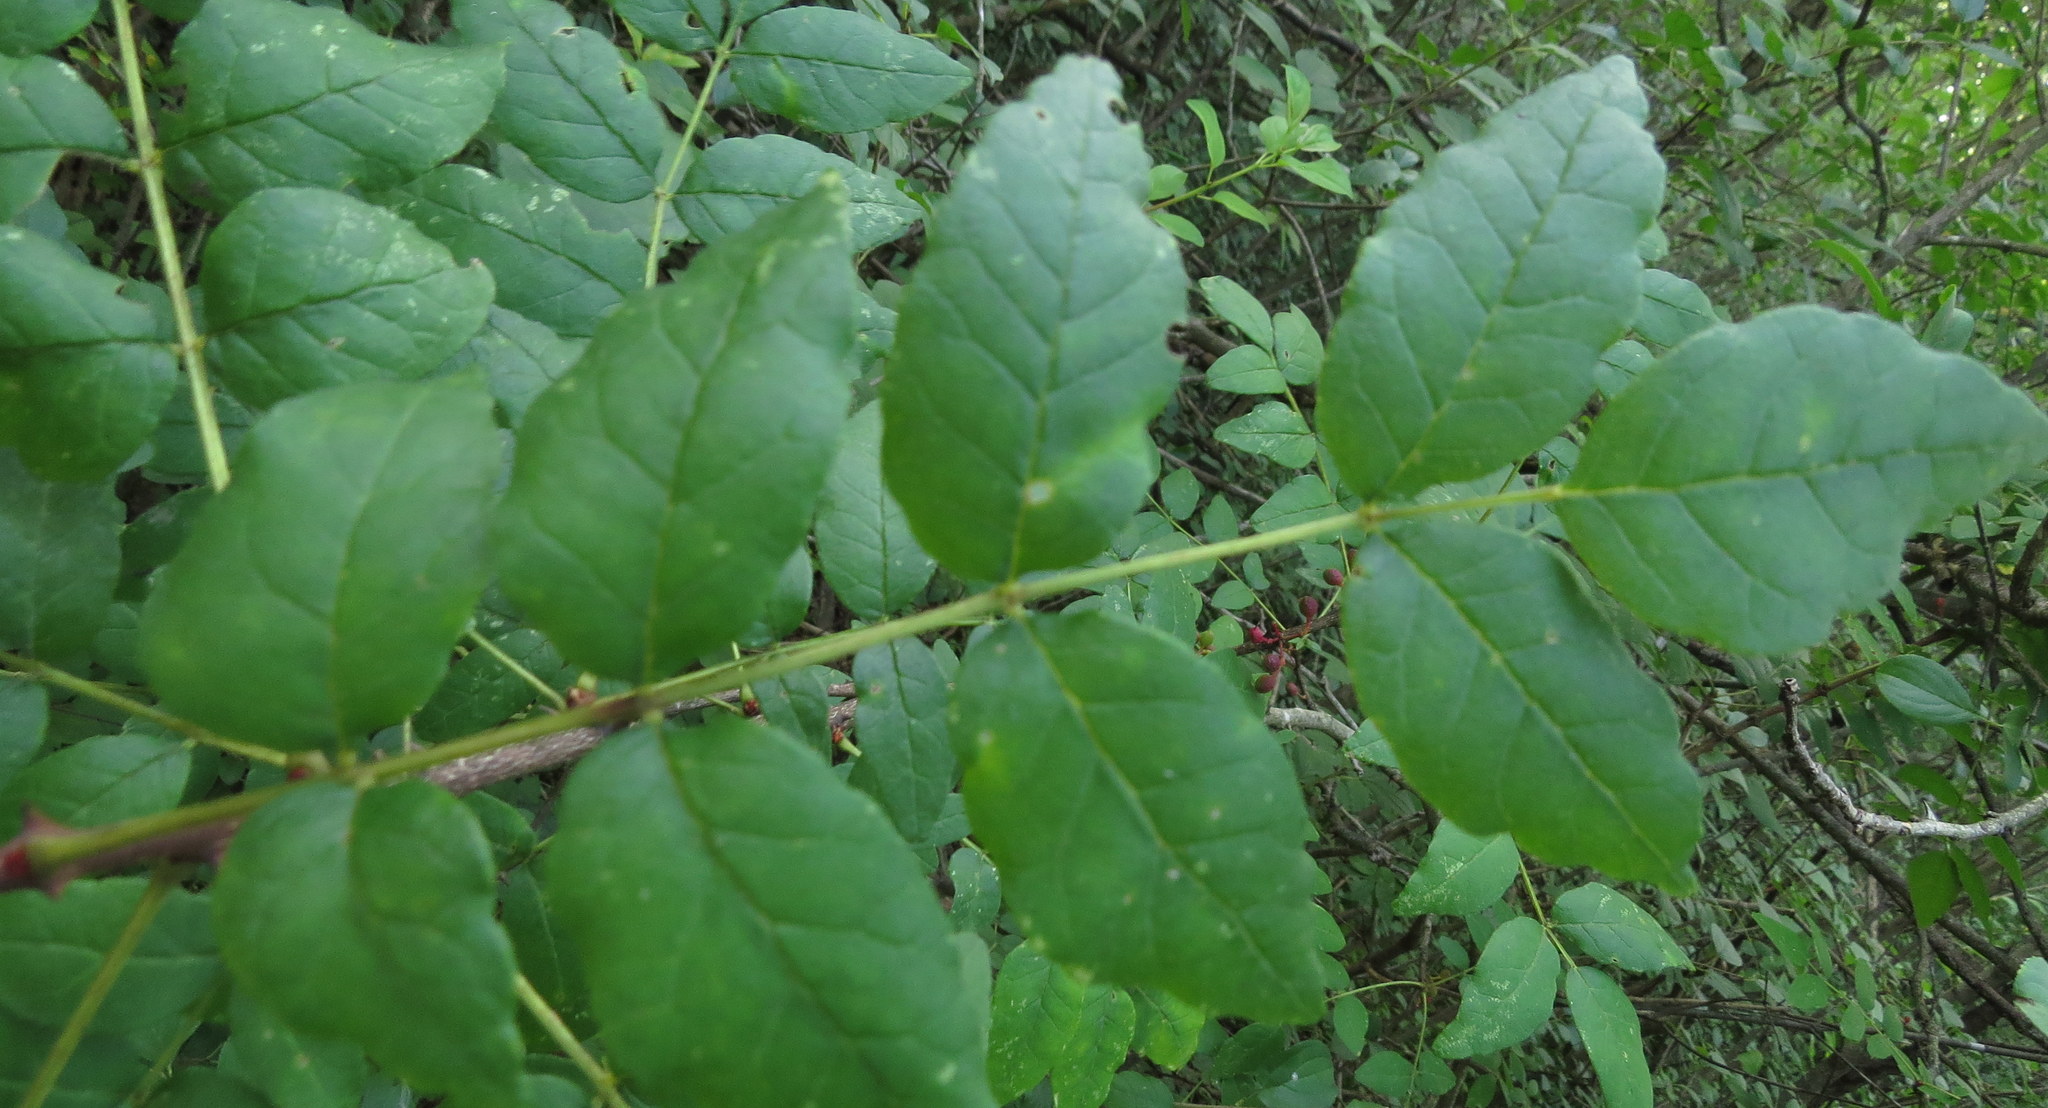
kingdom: Plantae
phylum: Tracheophyta
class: Magnoliopsida
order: Sapindales
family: Rutaceae
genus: Zanthoxylum
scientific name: Zanthoxylum americanum
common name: Northern prickly-ash
